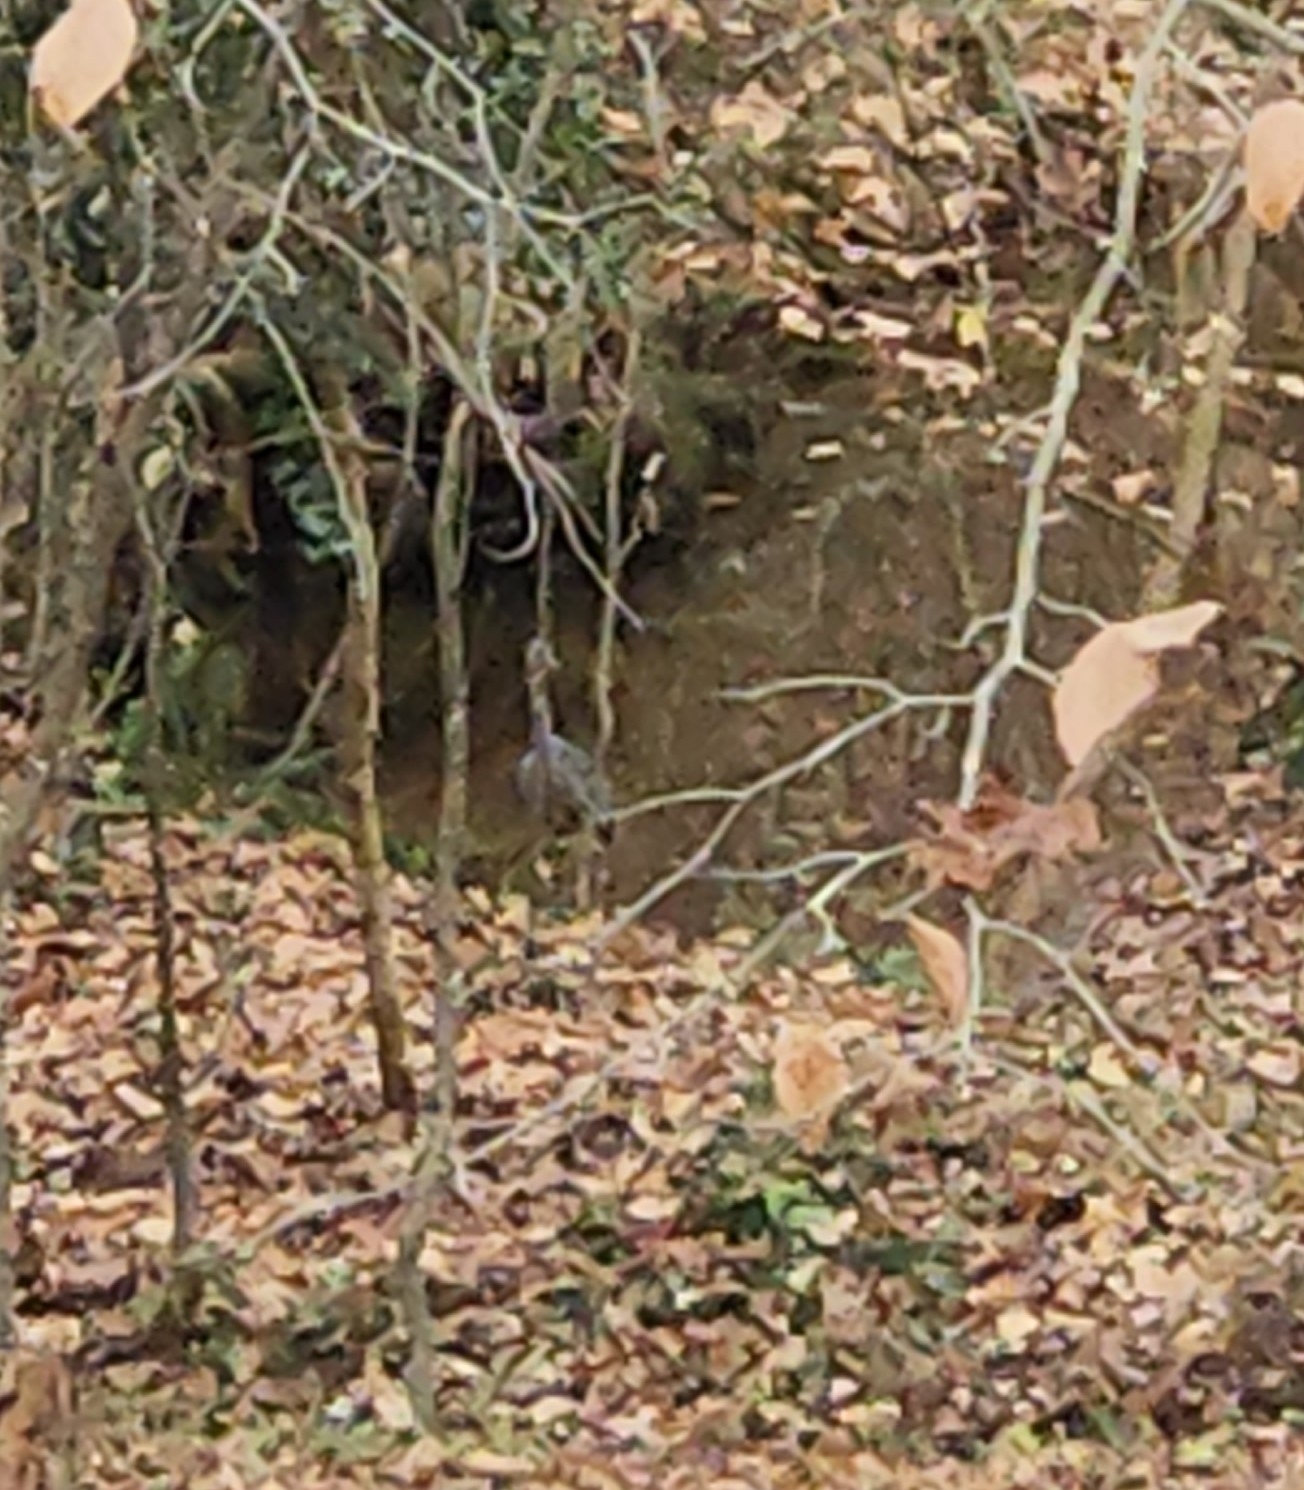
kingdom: Animalia
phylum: Chordata
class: Aves
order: Pelecaniformes
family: Ardeidae
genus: Ardea
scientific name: Ardea herodias
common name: Great blue heron
